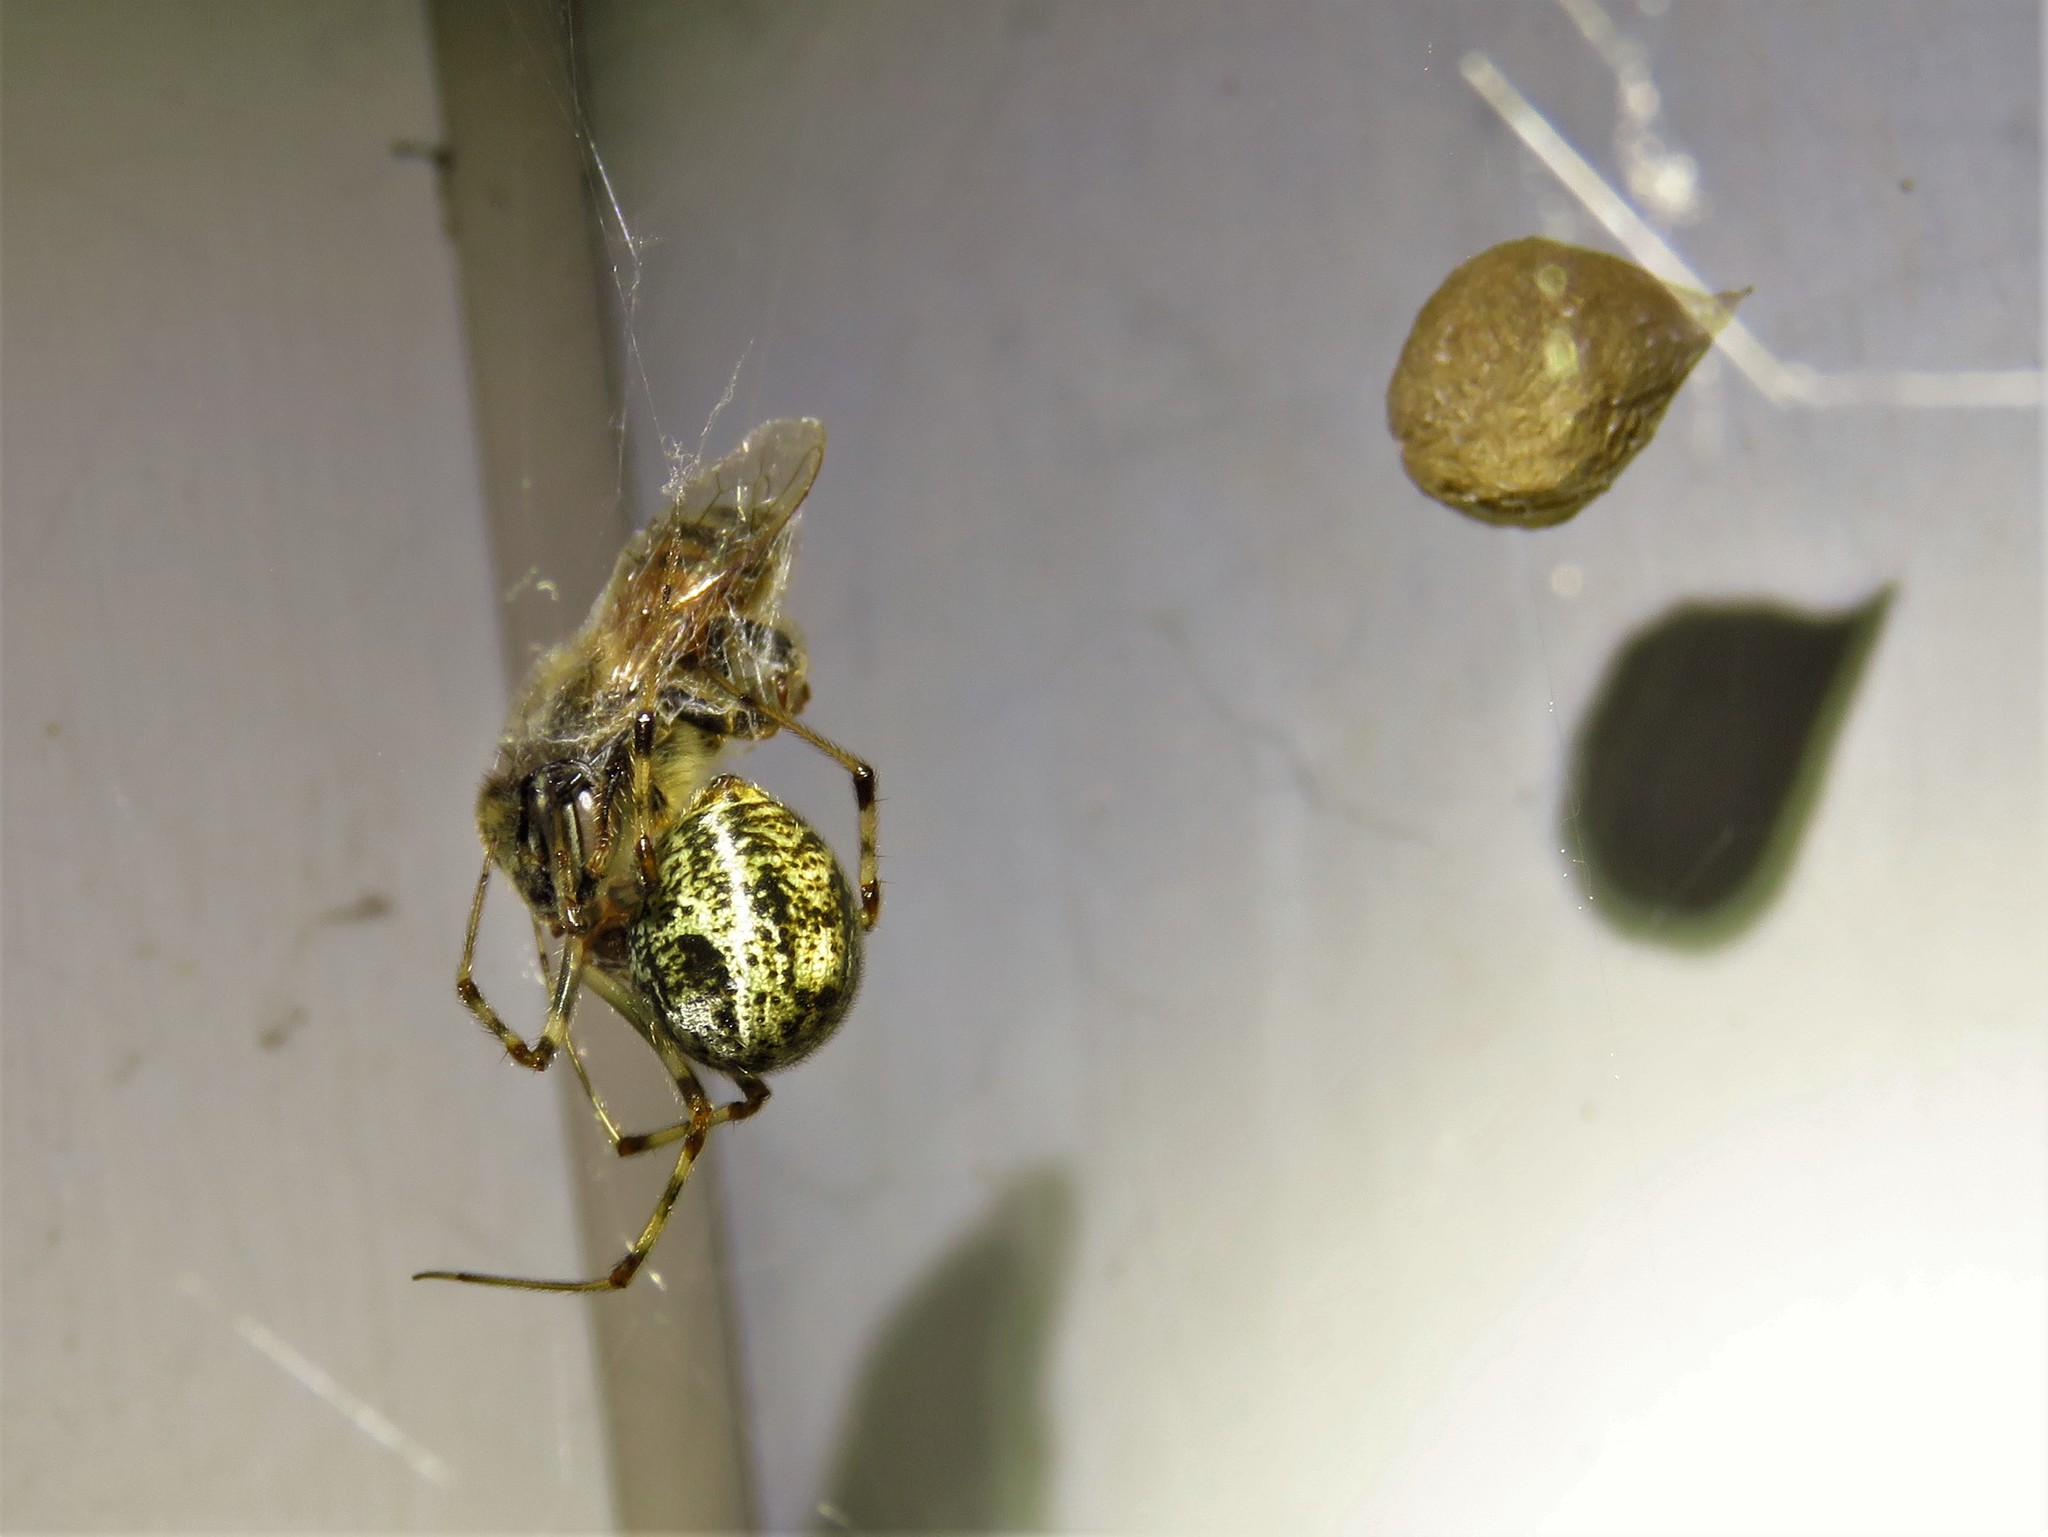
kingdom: Animalia
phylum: Arthropoda
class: Arachnida
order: Araneae
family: Theridiidae
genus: Parasteatoda
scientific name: Parasteatoda tepidariorum
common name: Common house spider
